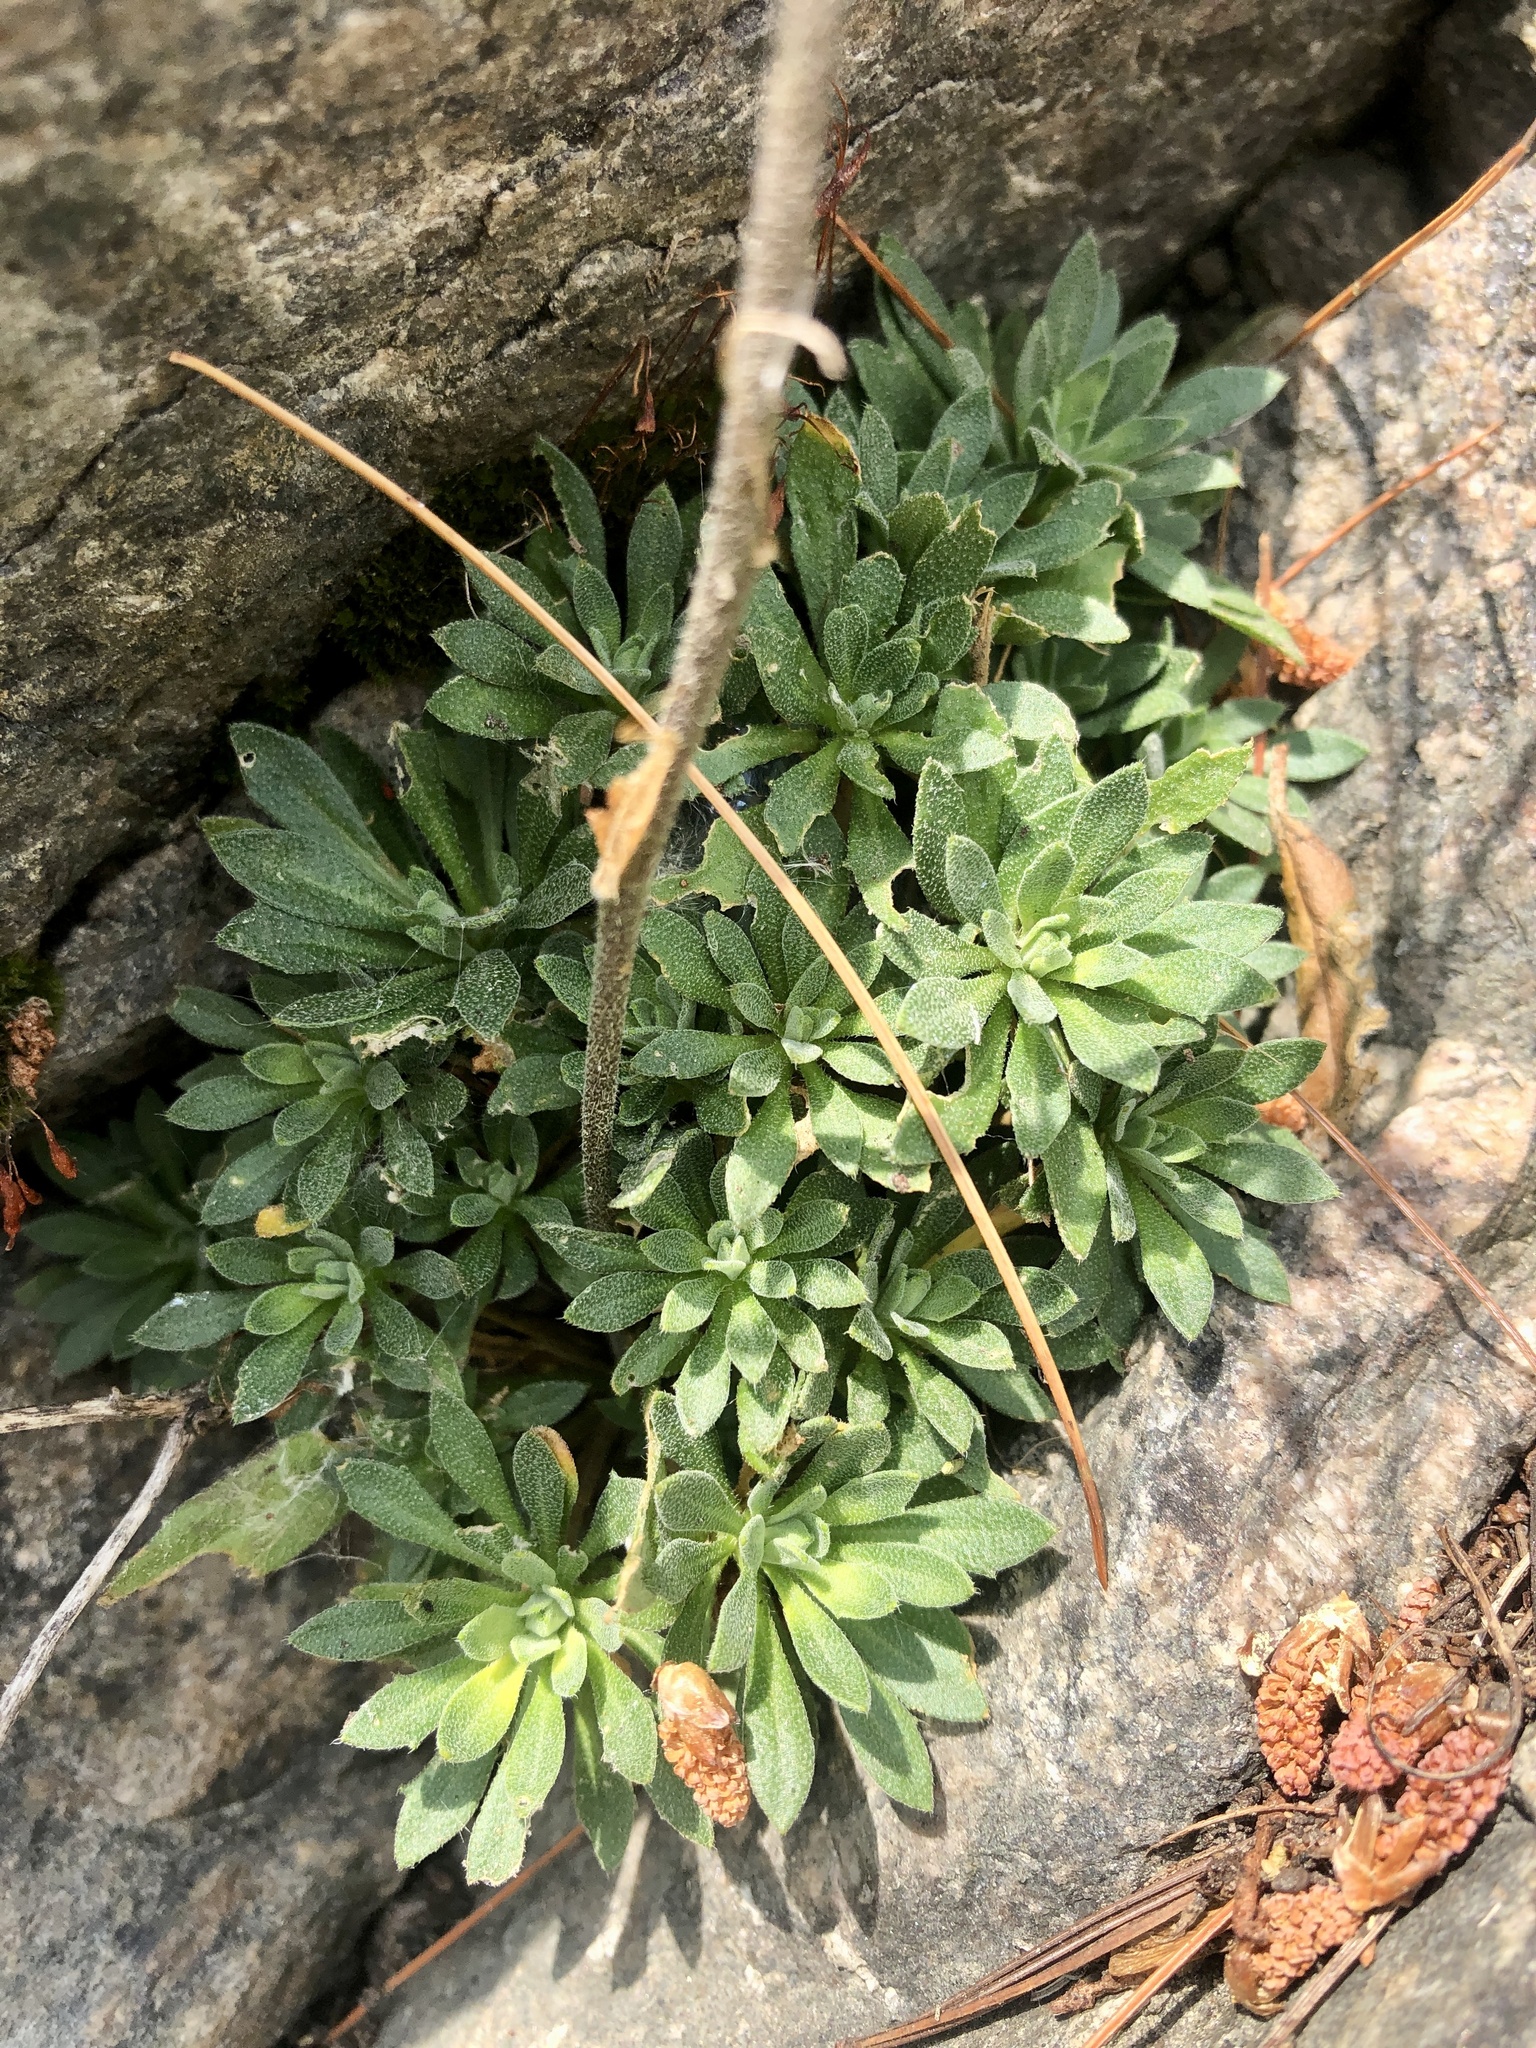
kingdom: Plantae
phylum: Tracheophyta
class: Magnoliopsida
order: Brassicales
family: Brassicaceae
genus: Draba
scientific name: Draba arabisans
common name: Rock draba
